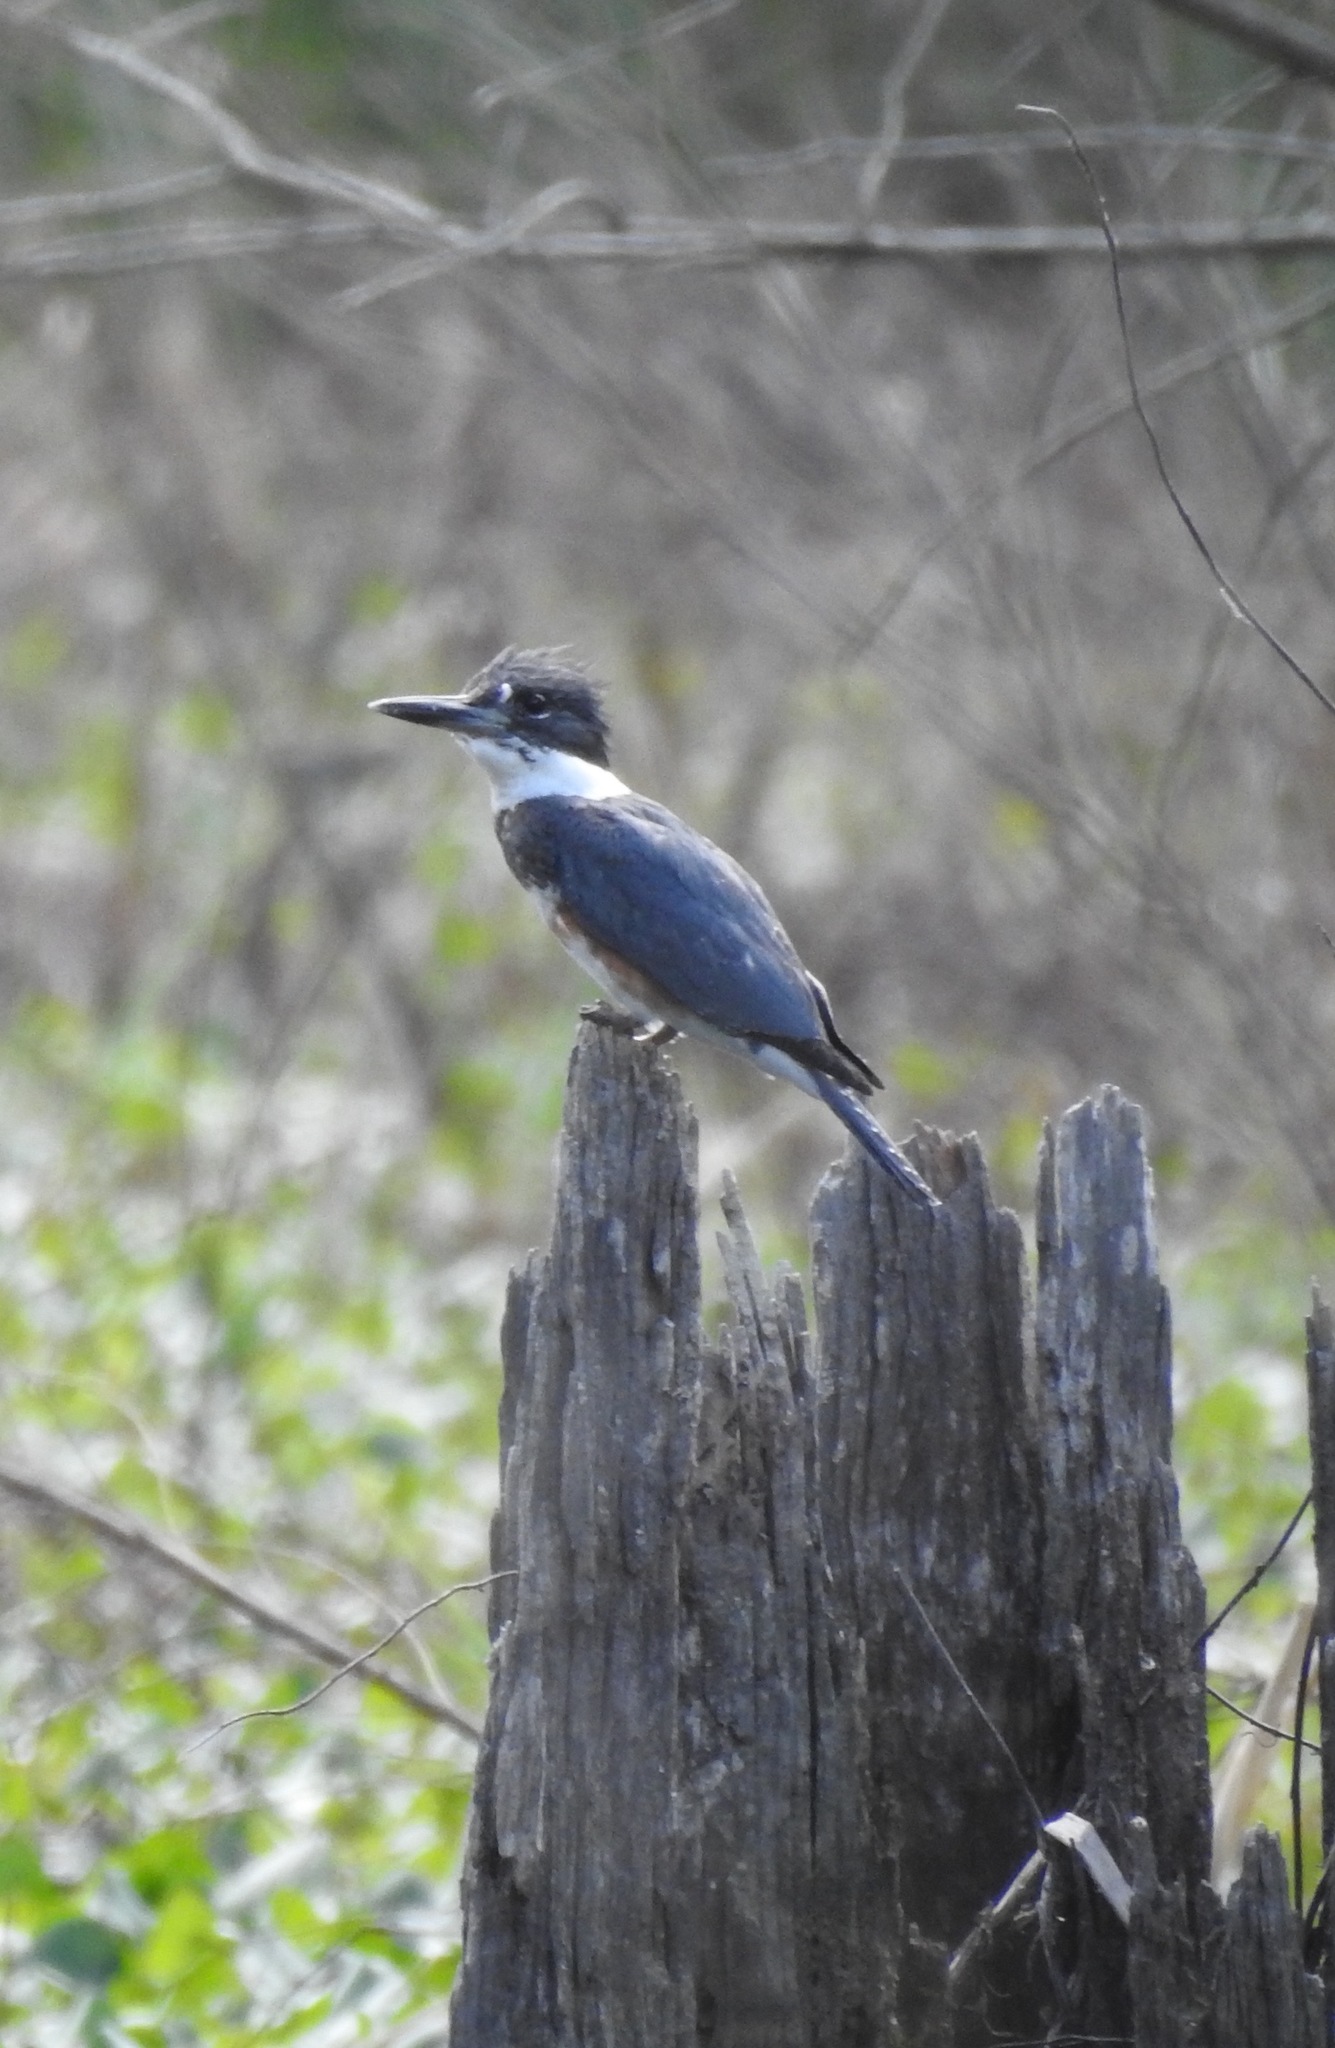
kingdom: Animalia
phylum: Chordata
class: Aves
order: Coraciiformes
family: Alcedinidae
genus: Megaceryle
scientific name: Megaceryle alcyon
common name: Belted kingfisher
